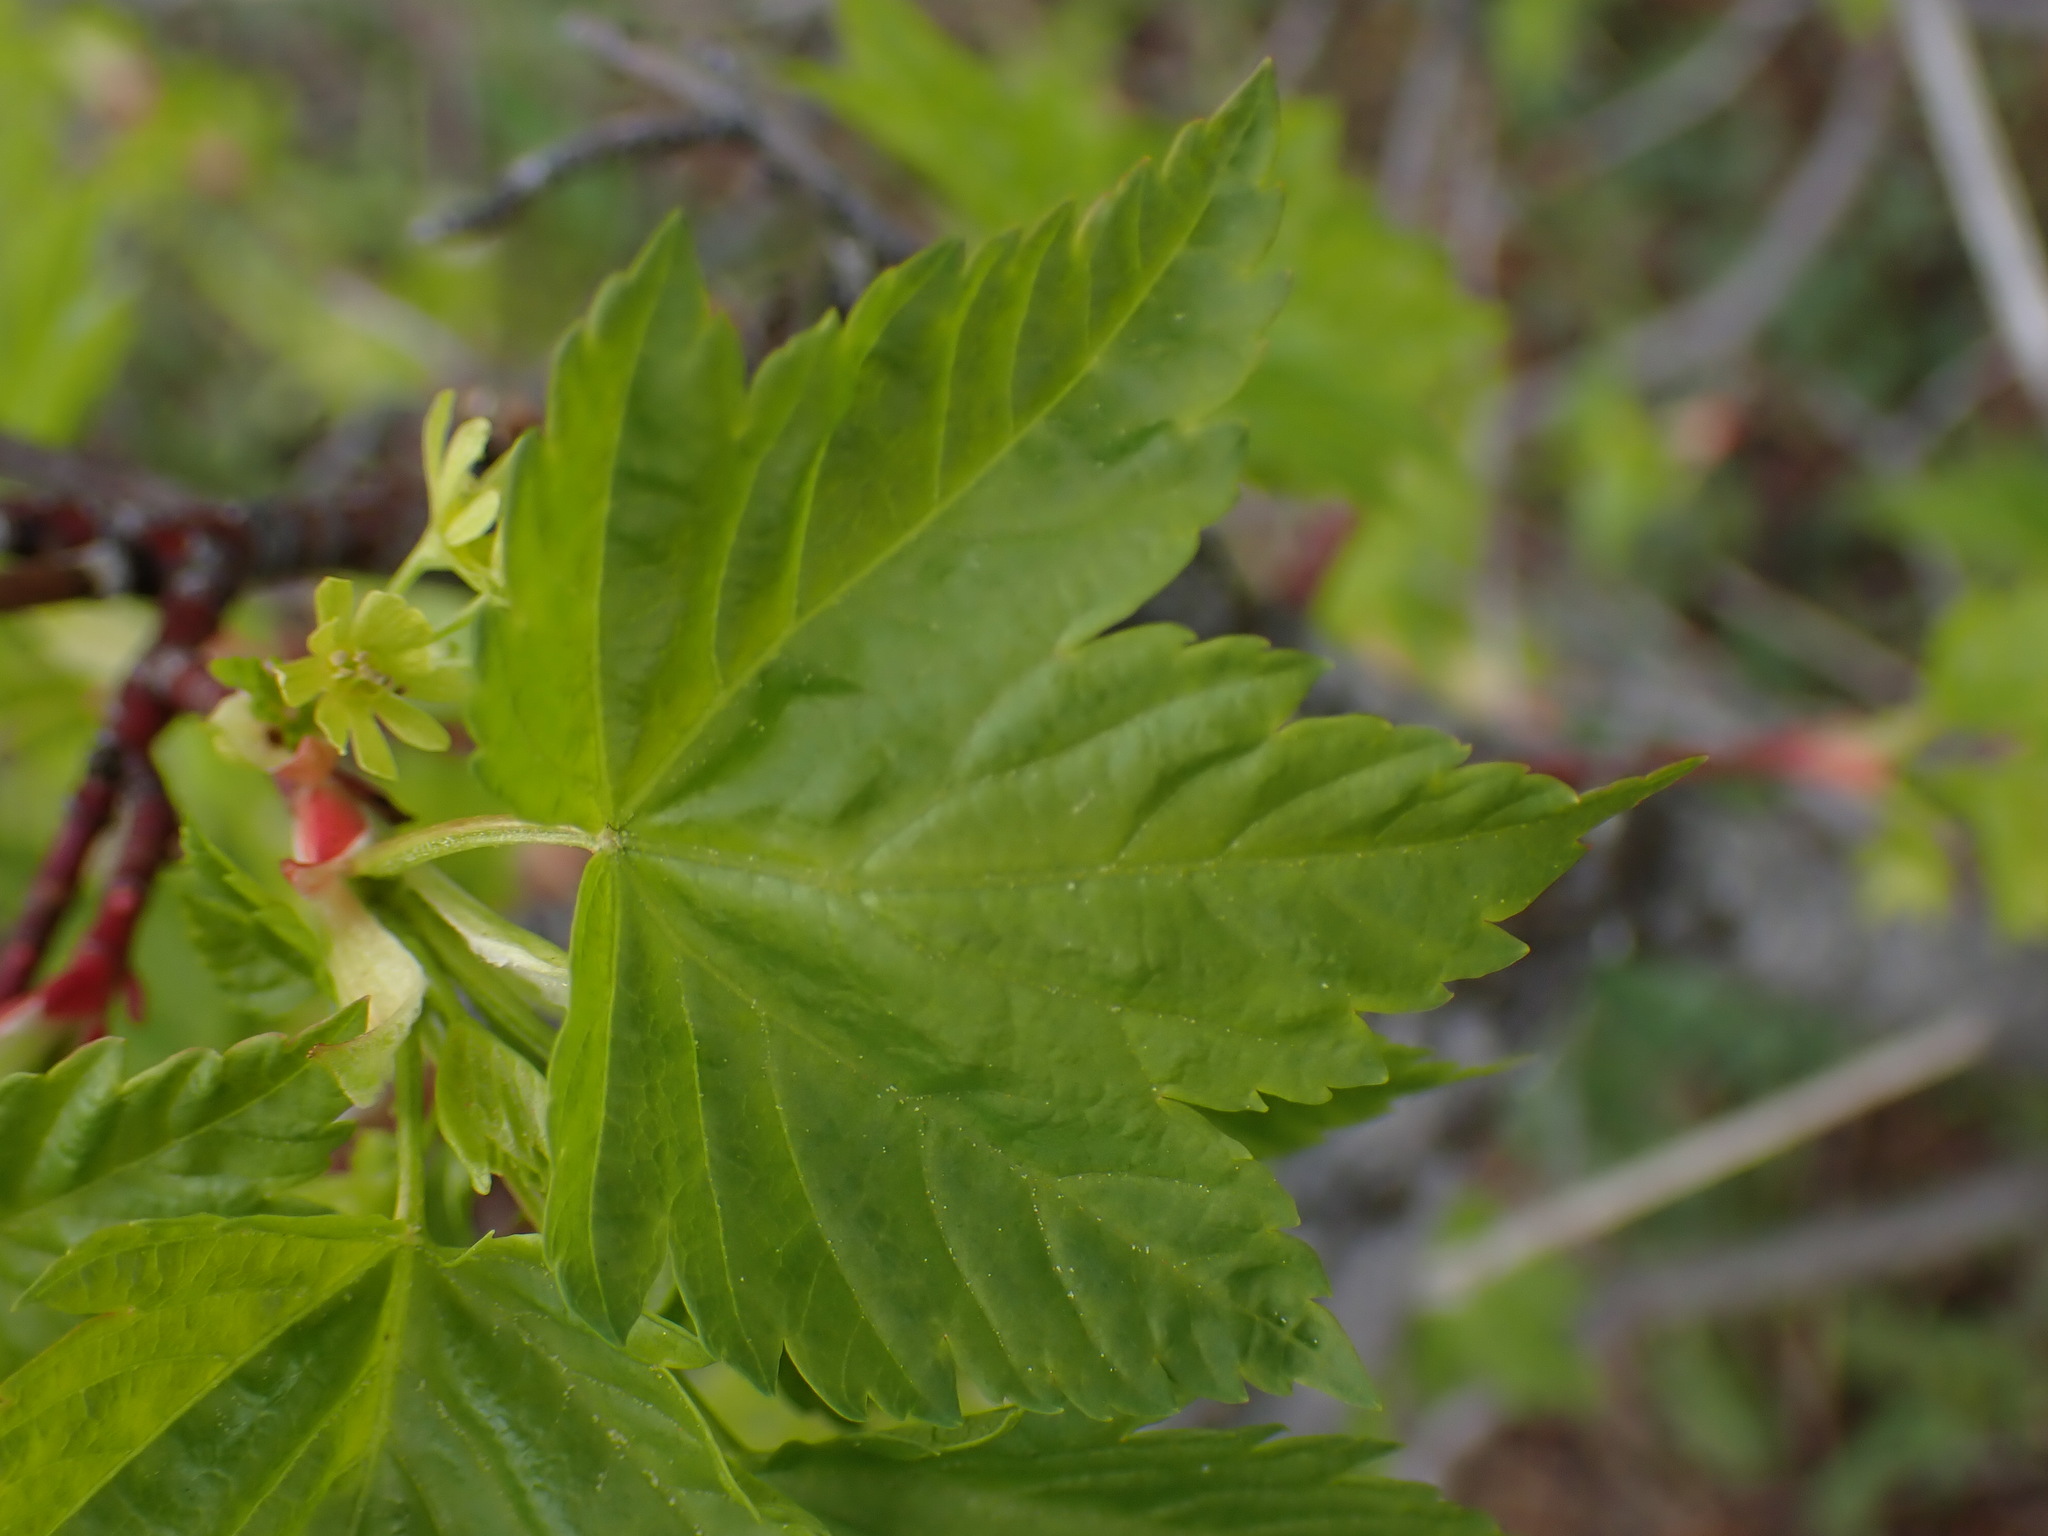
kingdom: Plantae
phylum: Tracheophyta
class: Magnoliopsida
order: Sapindales
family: Sapindaceae
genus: Acer
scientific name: Acer glabrum
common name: Rocky mountain maple
